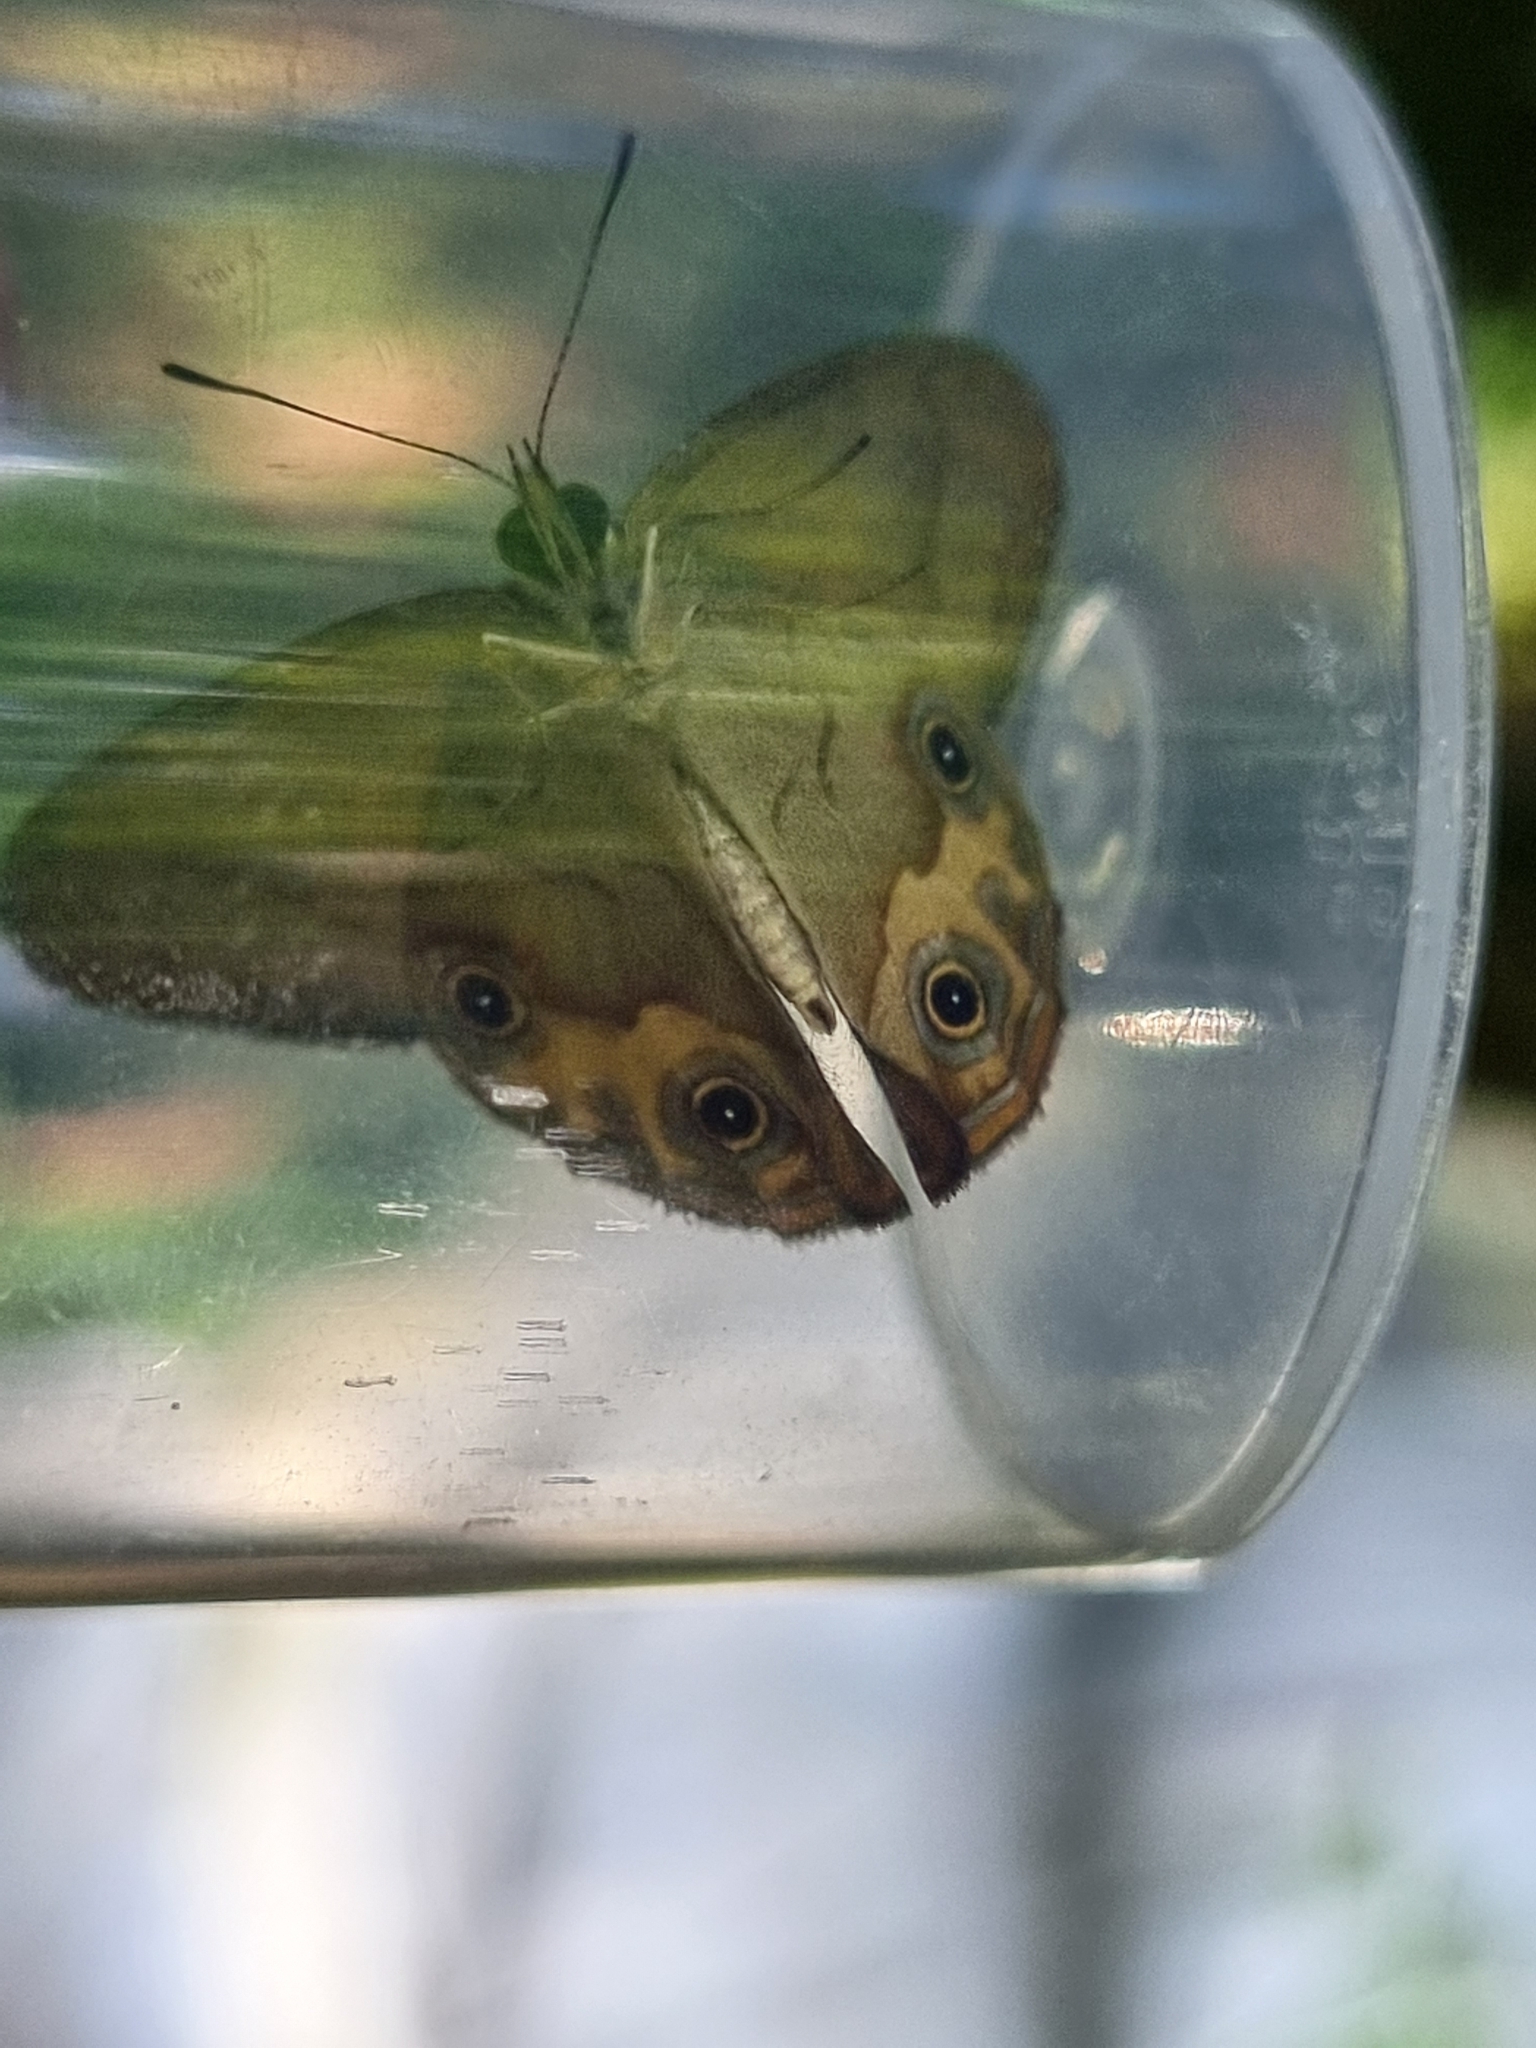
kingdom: Animalia
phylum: Arthropoda
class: Insecta
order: Lepidoptera
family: Nymphalidae
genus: Hypocysta
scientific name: Hypocysta metirius
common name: Brown ringlet
